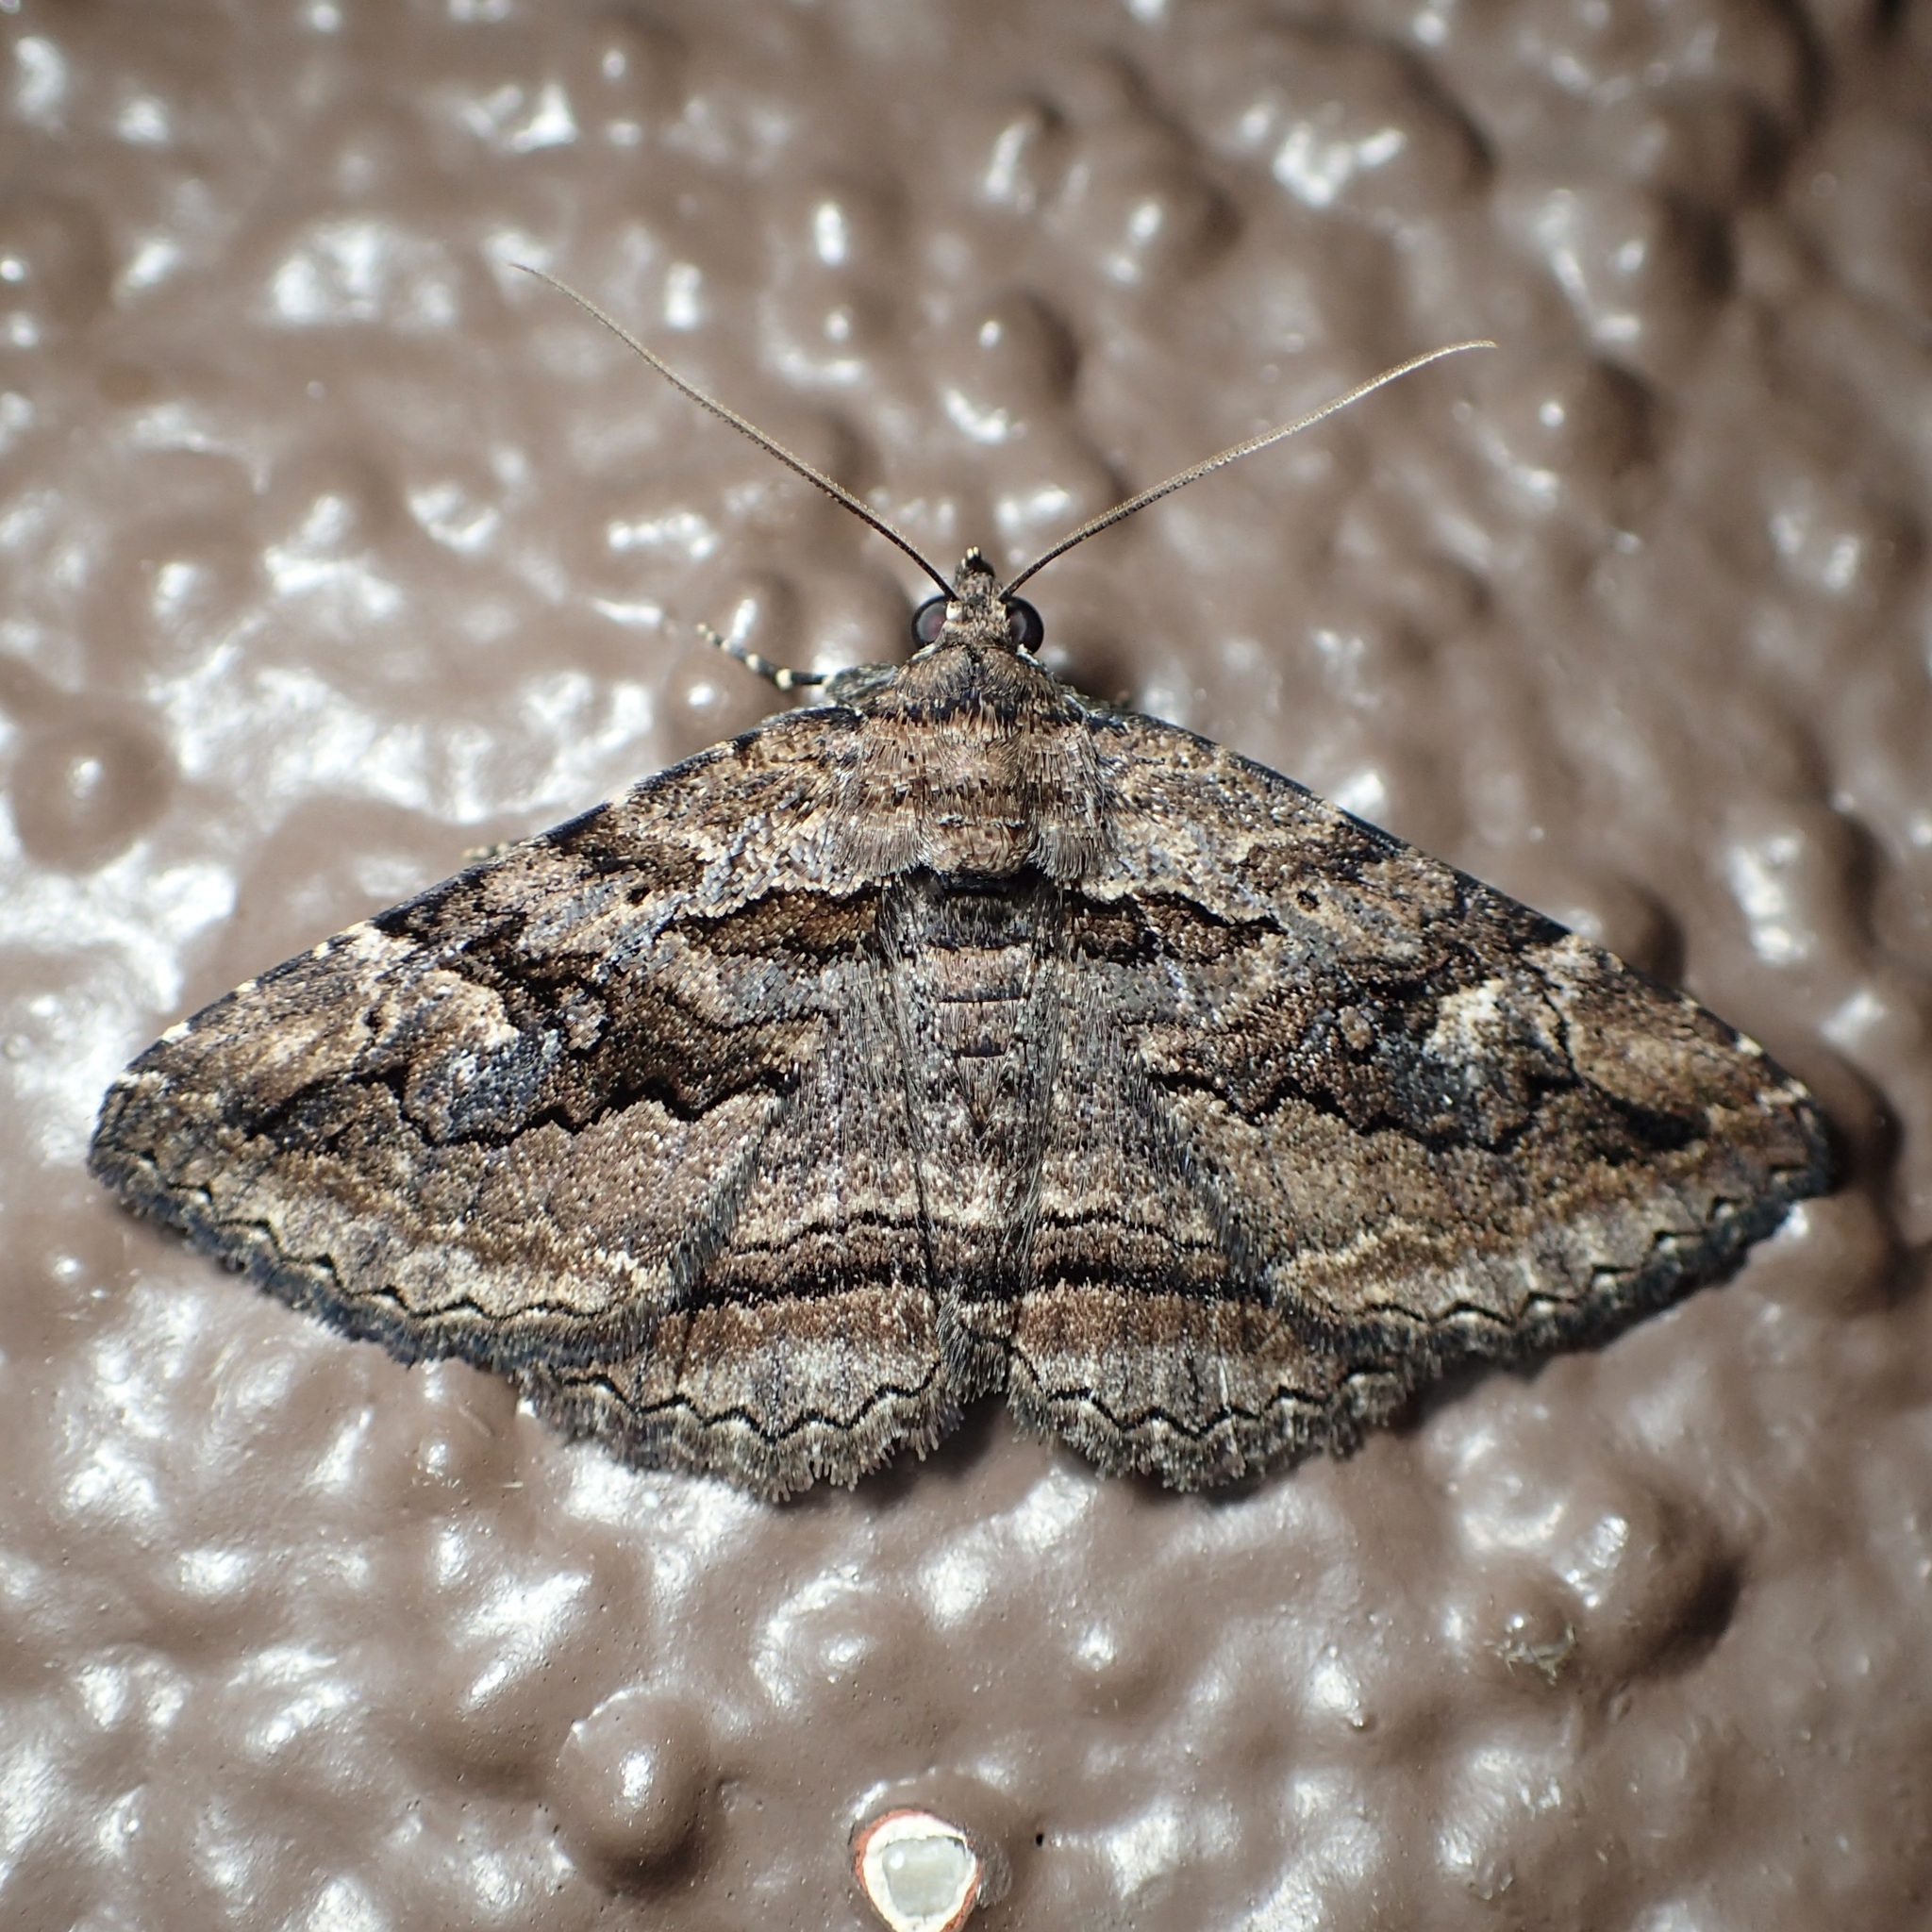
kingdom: Animalia
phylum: Arthropoda
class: Insecta
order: Lepidoptera
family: Erebidae
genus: Zaleops
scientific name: Zaleops umbrina
